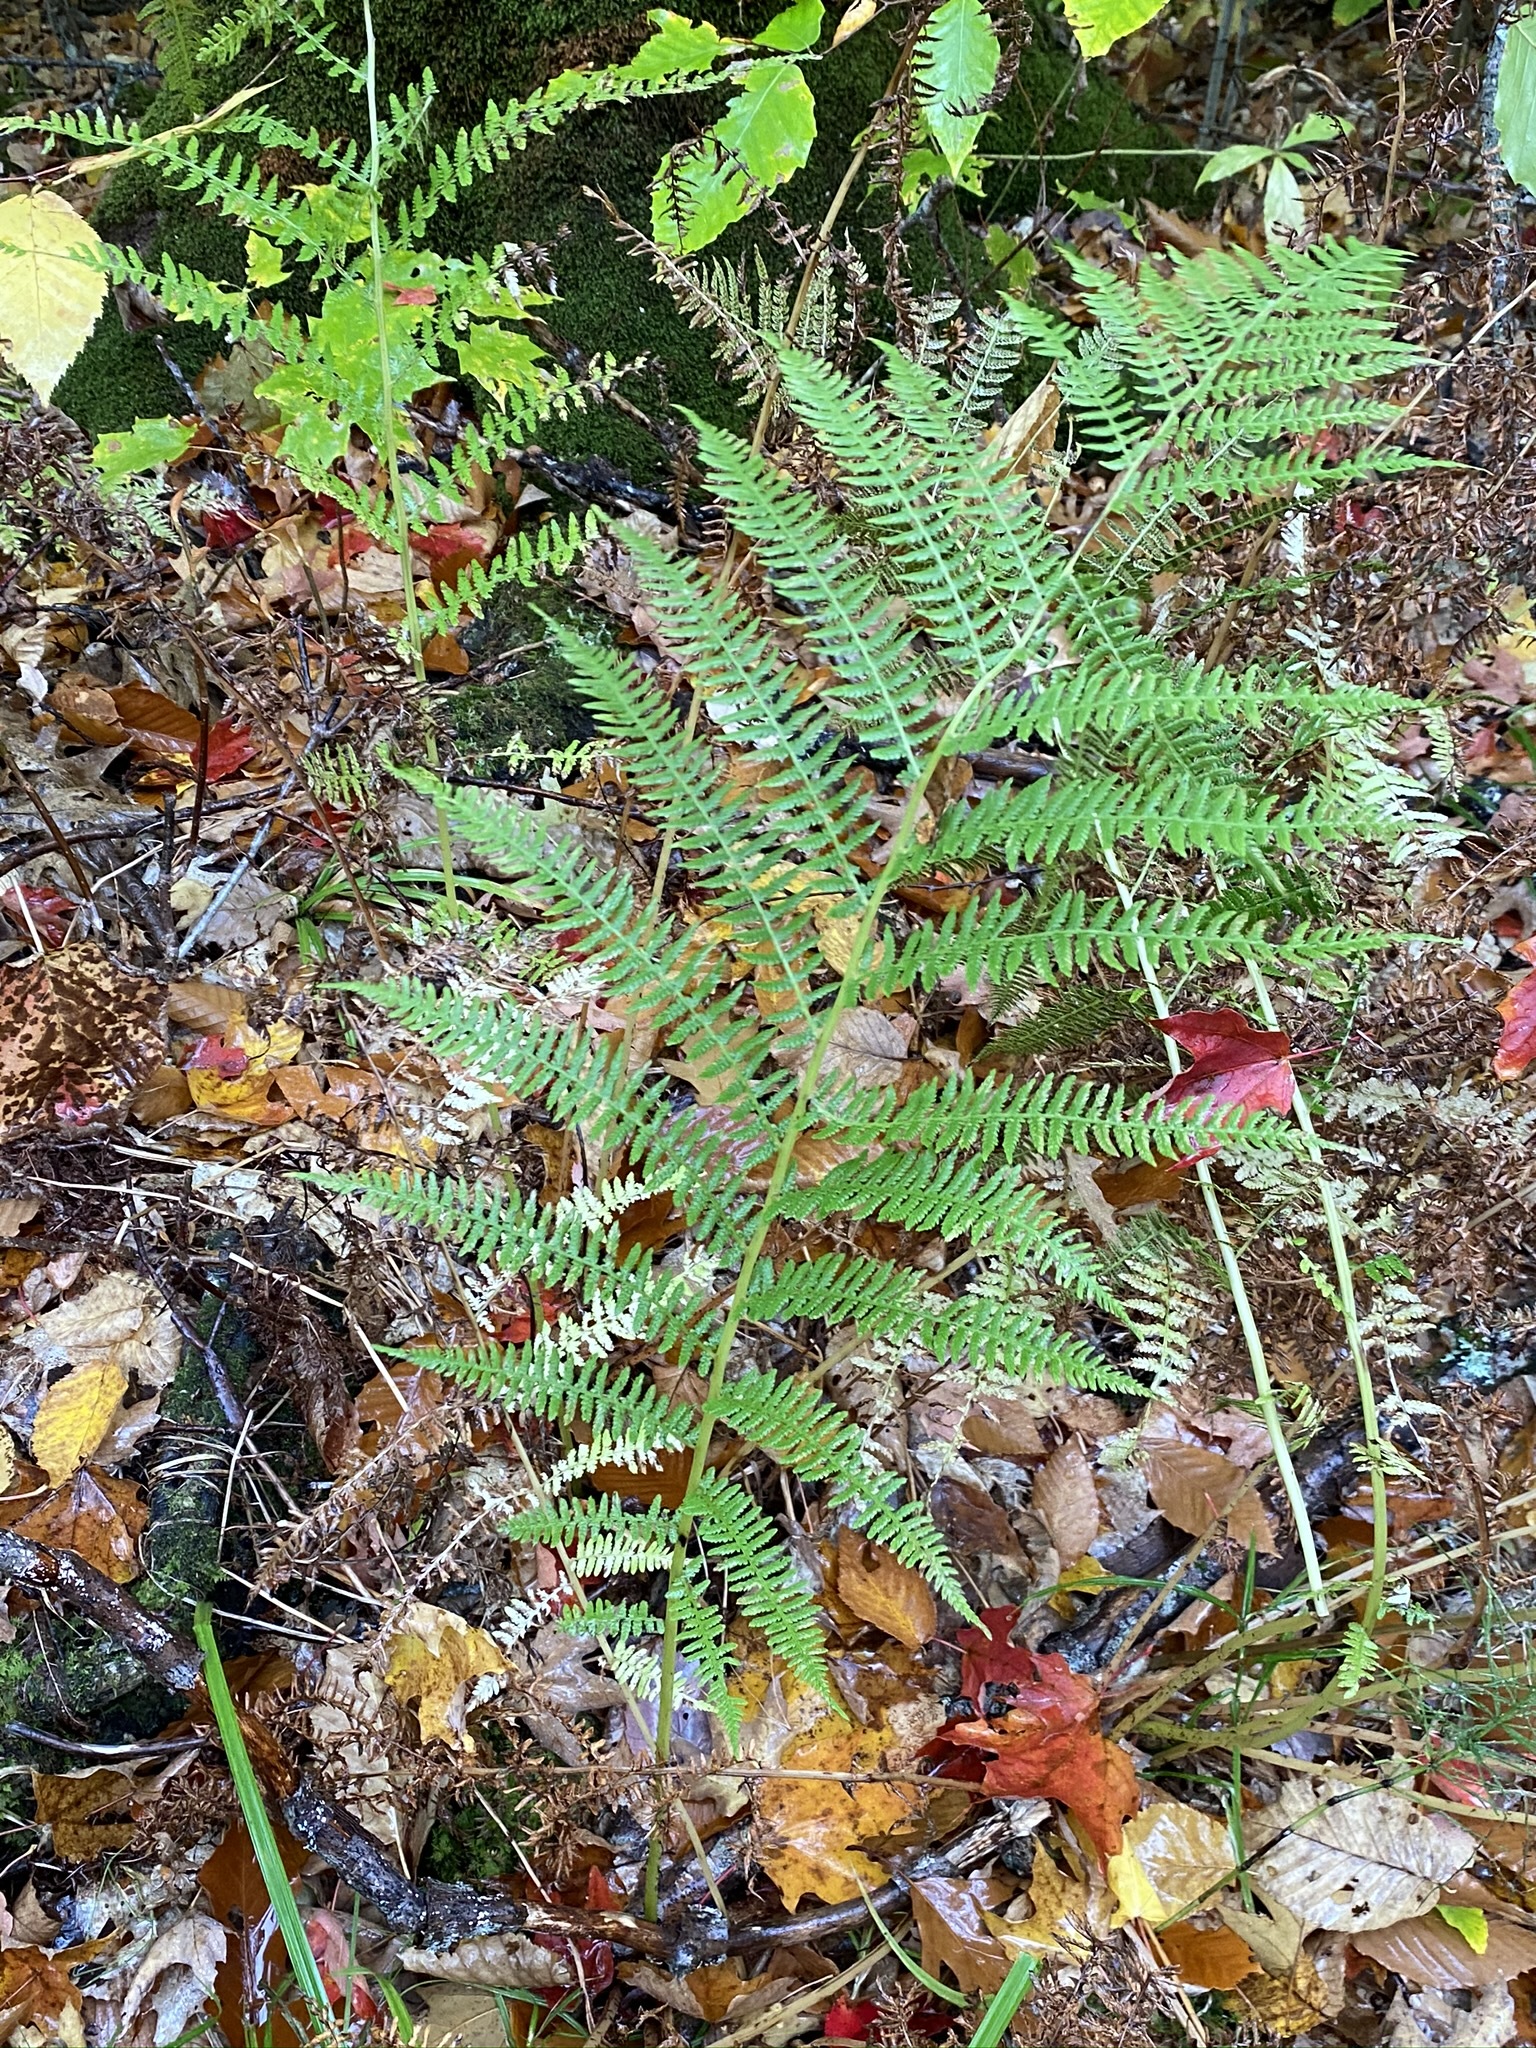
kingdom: Plantae
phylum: Tracheophyta
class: Polypodiopsida
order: Polypodiales
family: Athyriaceae
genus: Athyrium
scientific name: Athyrium angustum
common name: Northern lady fern
